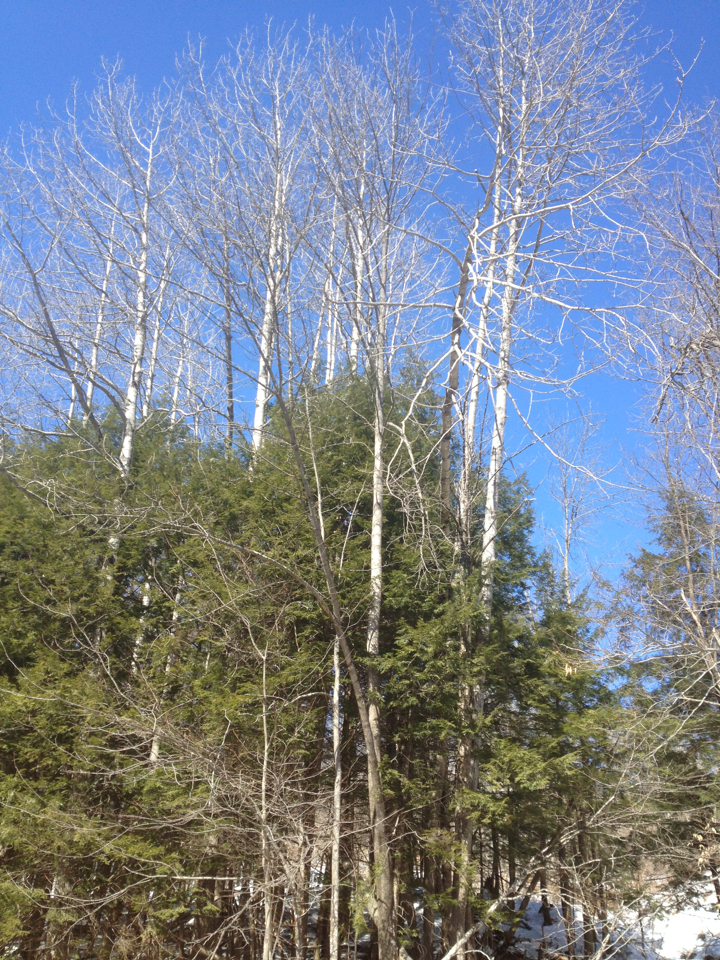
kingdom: Plantae
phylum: Tracheophyta
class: Pinopsida
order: Pinales
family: Pinaceae
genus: Tsuga
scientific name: Tsuga canadensis
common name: Eastern hemlock
